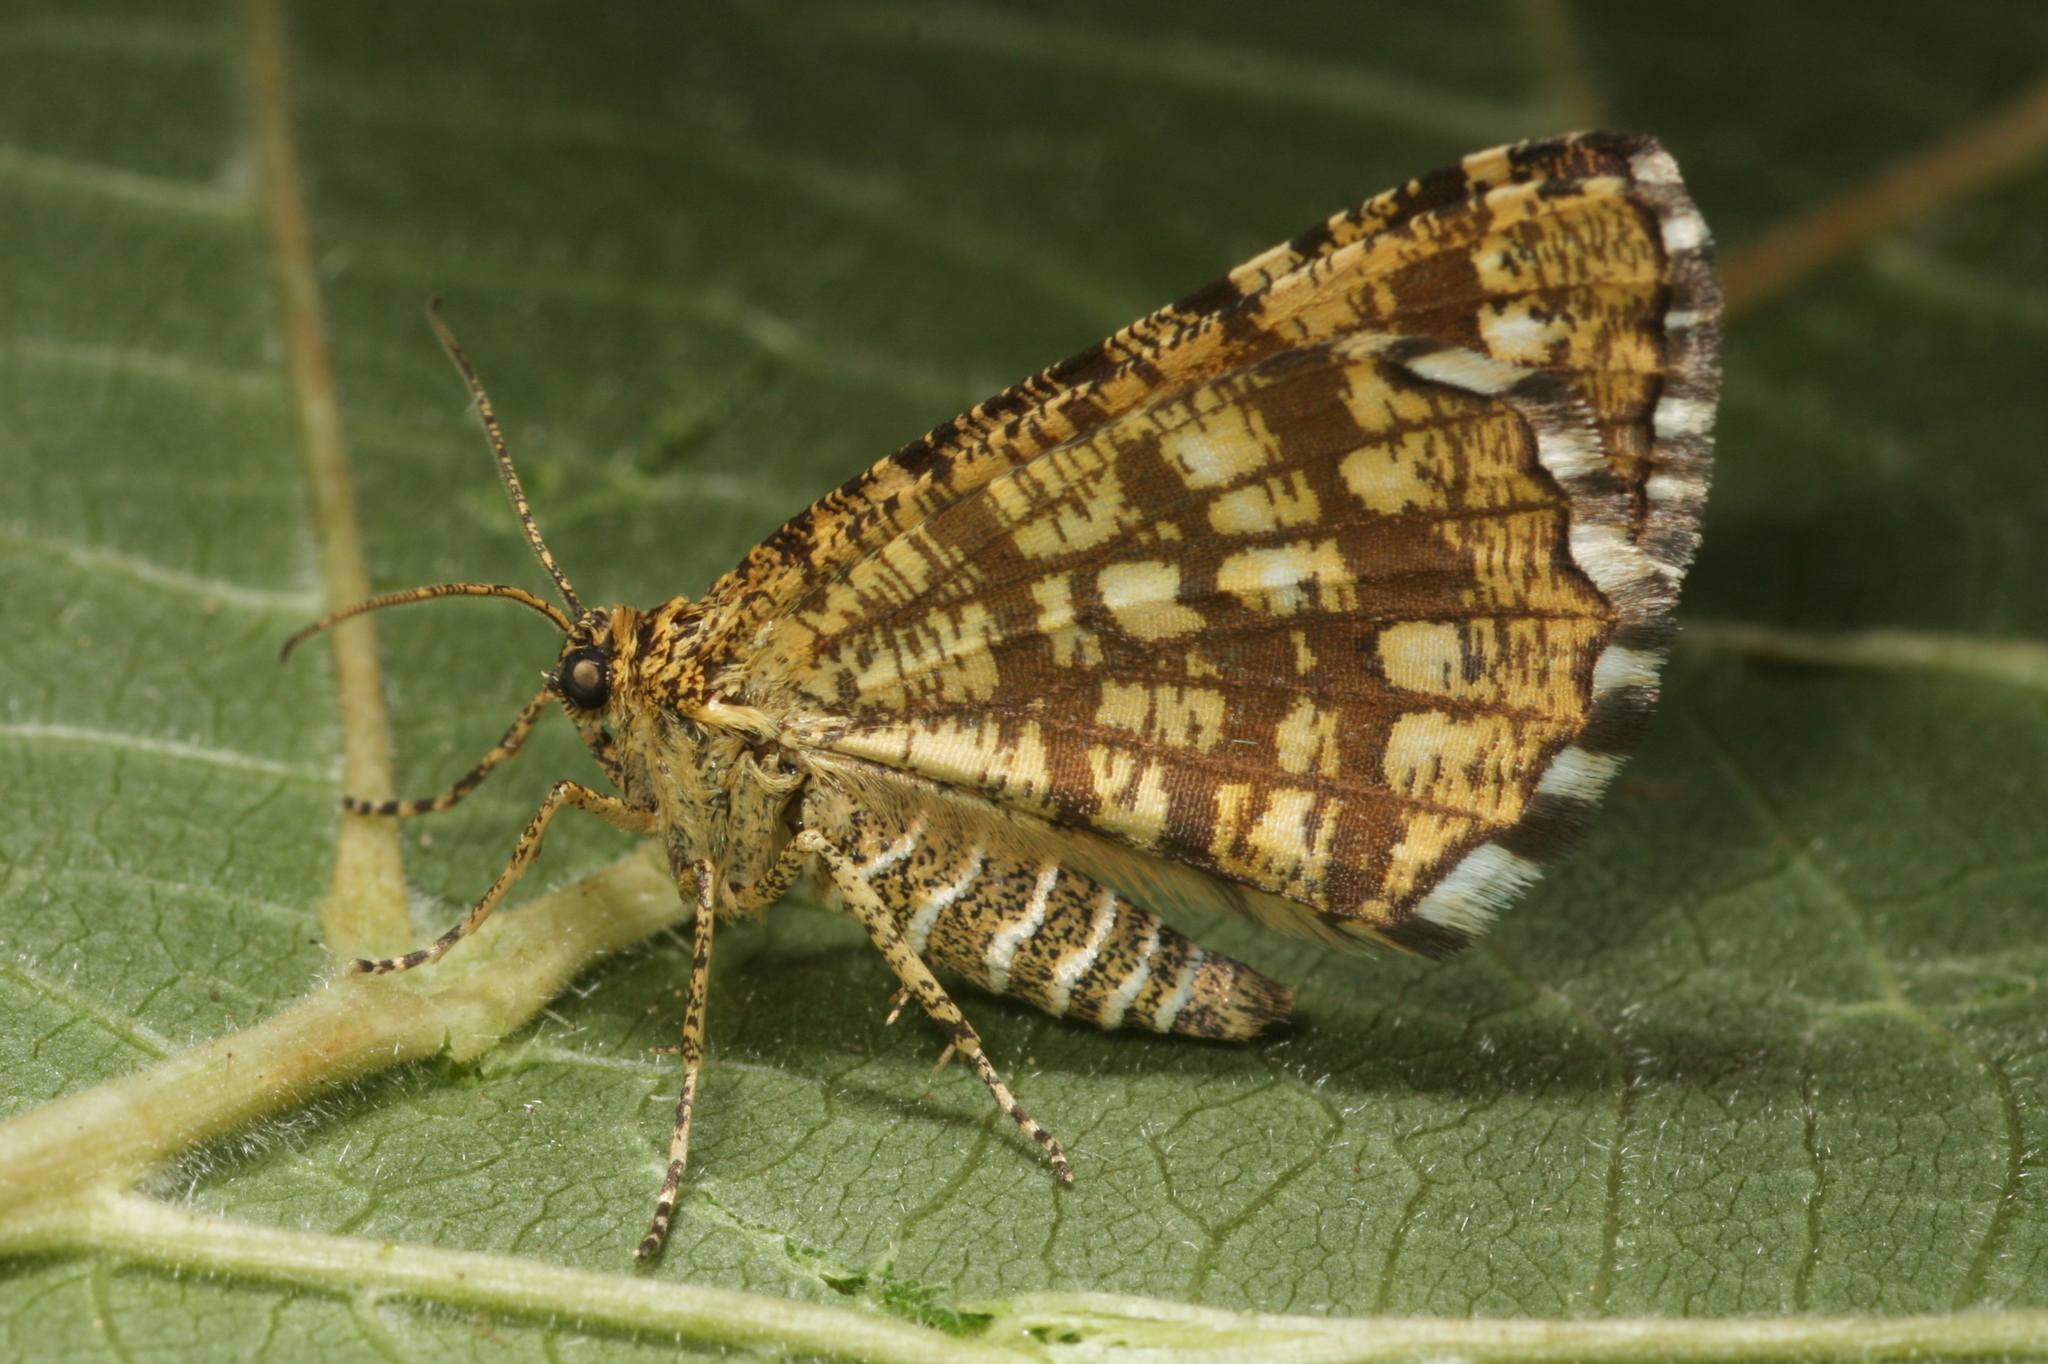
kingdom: Animalia
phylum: Arthropoda
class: Insecta
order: Lepidoptera
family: Geometridae
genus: Chiasmia
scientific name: Chiasmia clathrata
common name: Latticed heath
